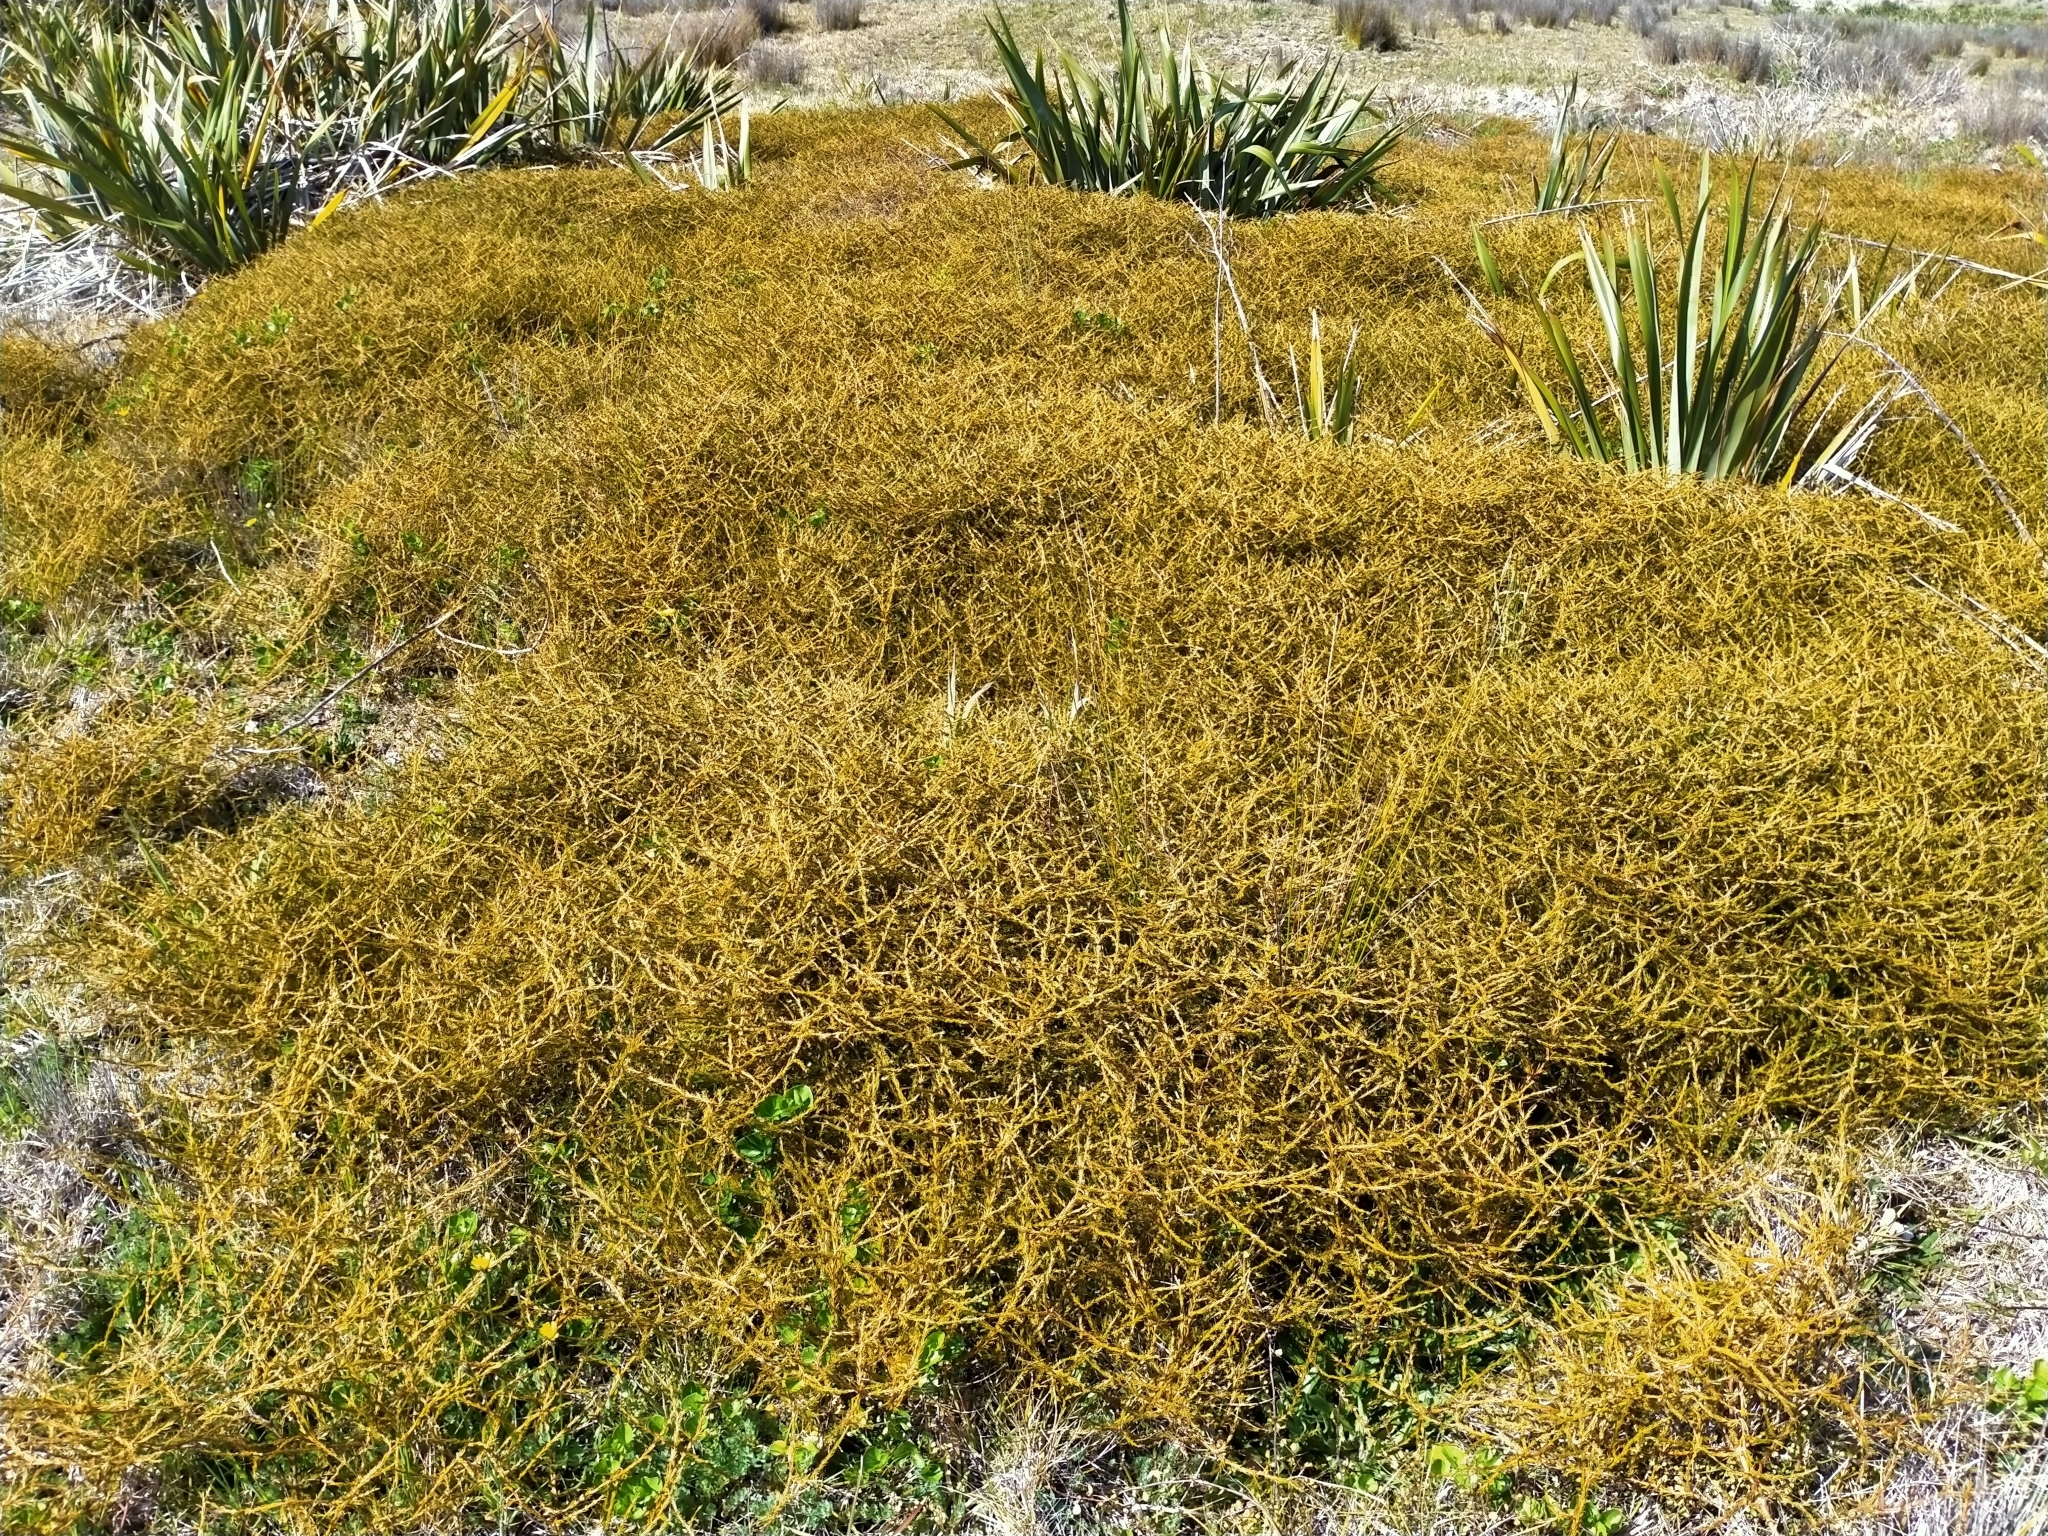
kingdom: Plantae
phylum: Tracheophyta
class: Magnoliopsida
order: Gentianales
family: Rubiaceae
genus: Coprosma
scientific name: Coprosma acerosa
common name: Sand coprosma
